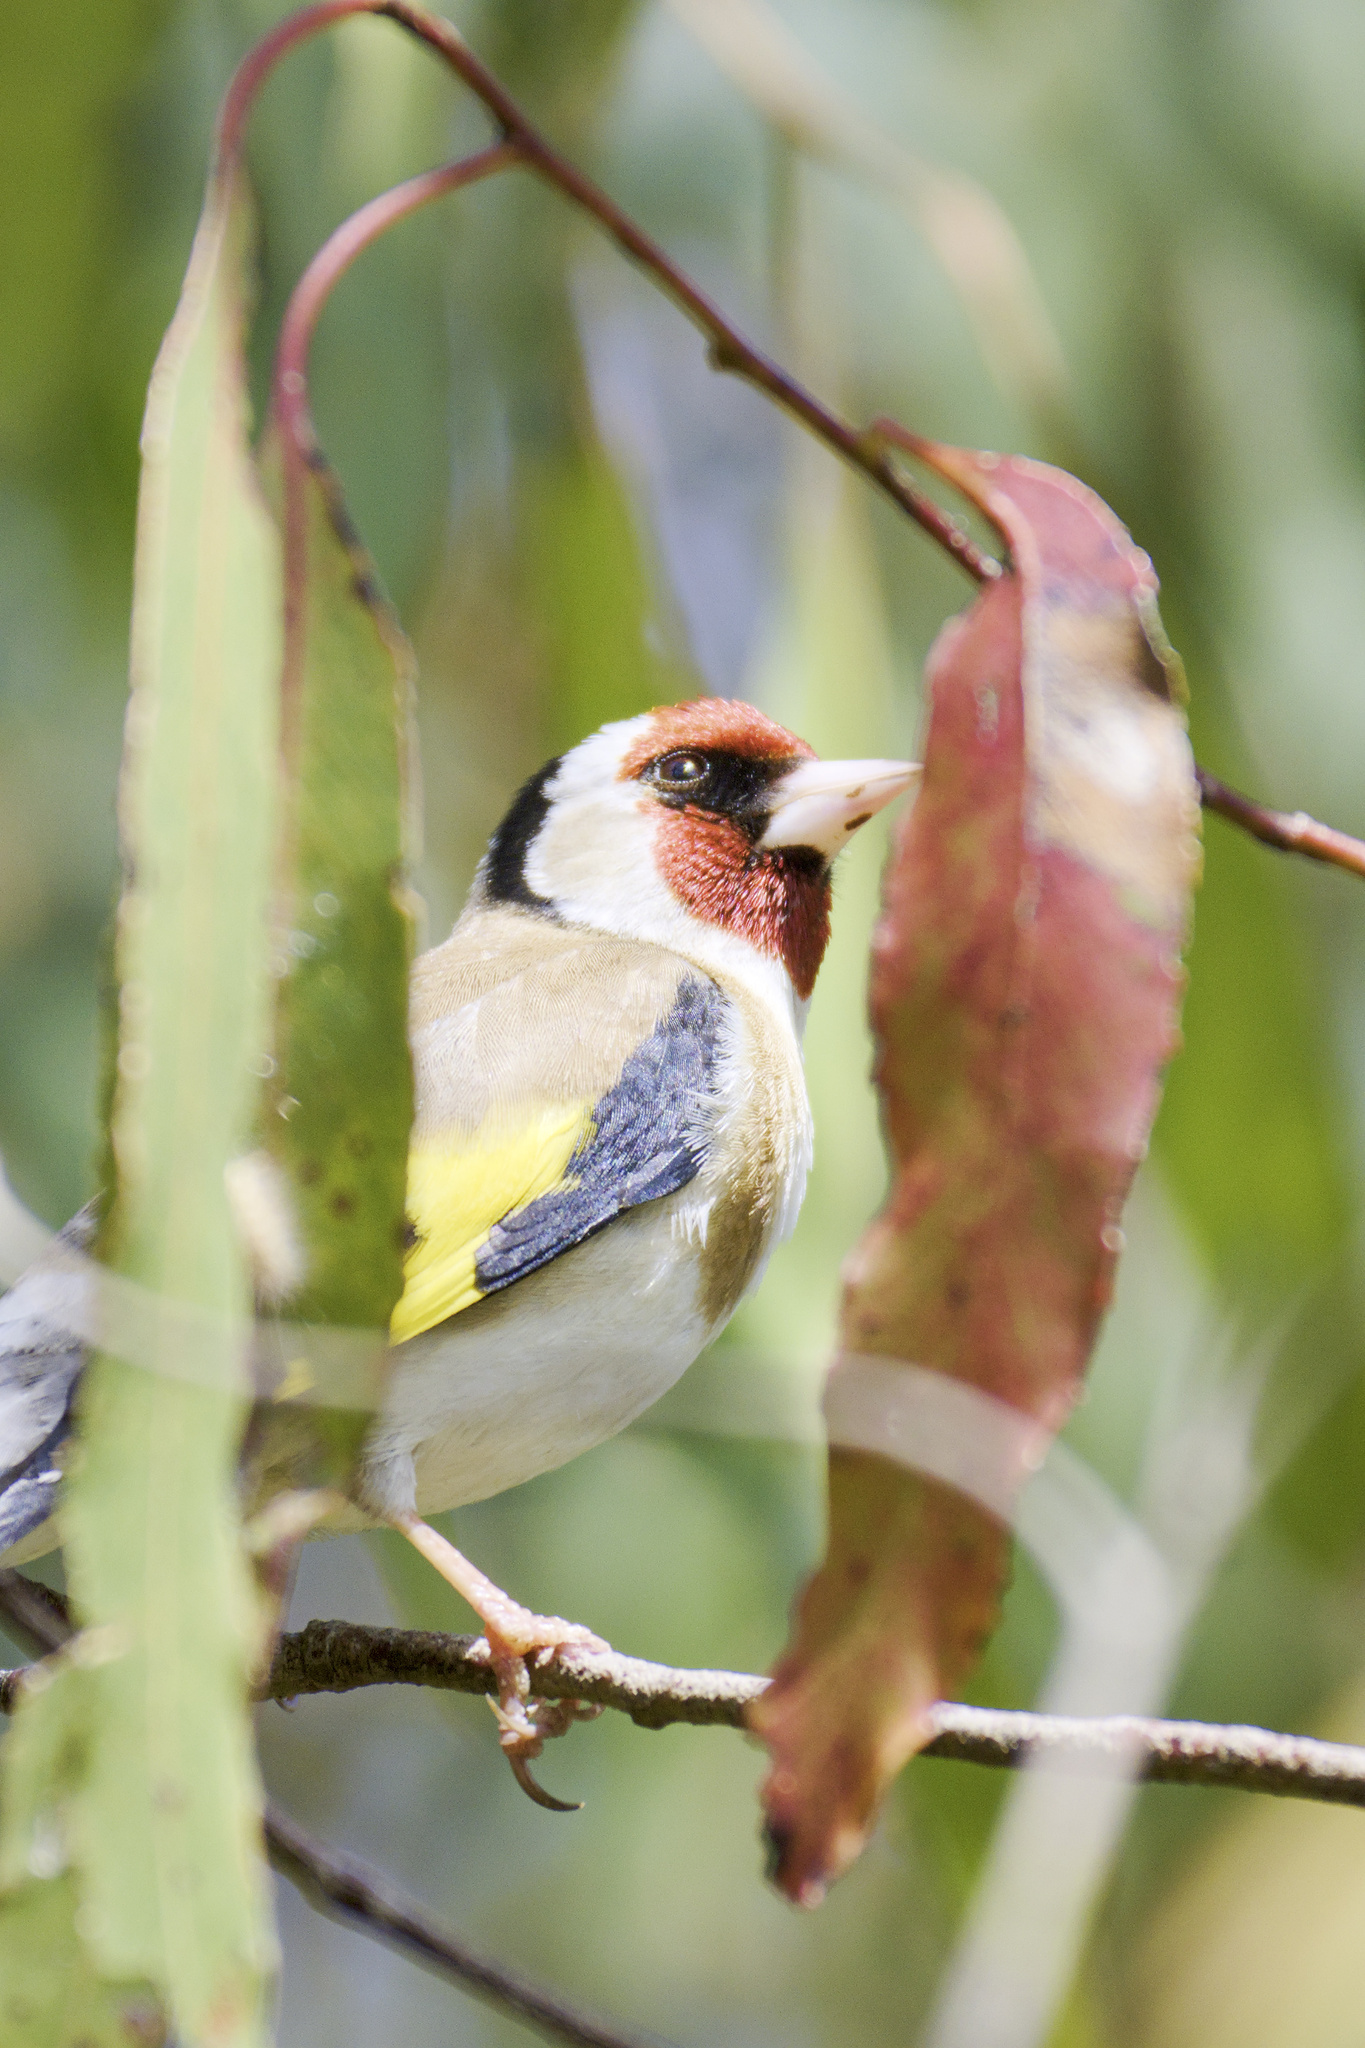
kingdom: Animalia
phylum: Chordata
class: Aves
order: Passeriformes
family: Fringillidae
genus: Carduelis
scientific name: Carduelis carduelis
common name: European goldfinch
